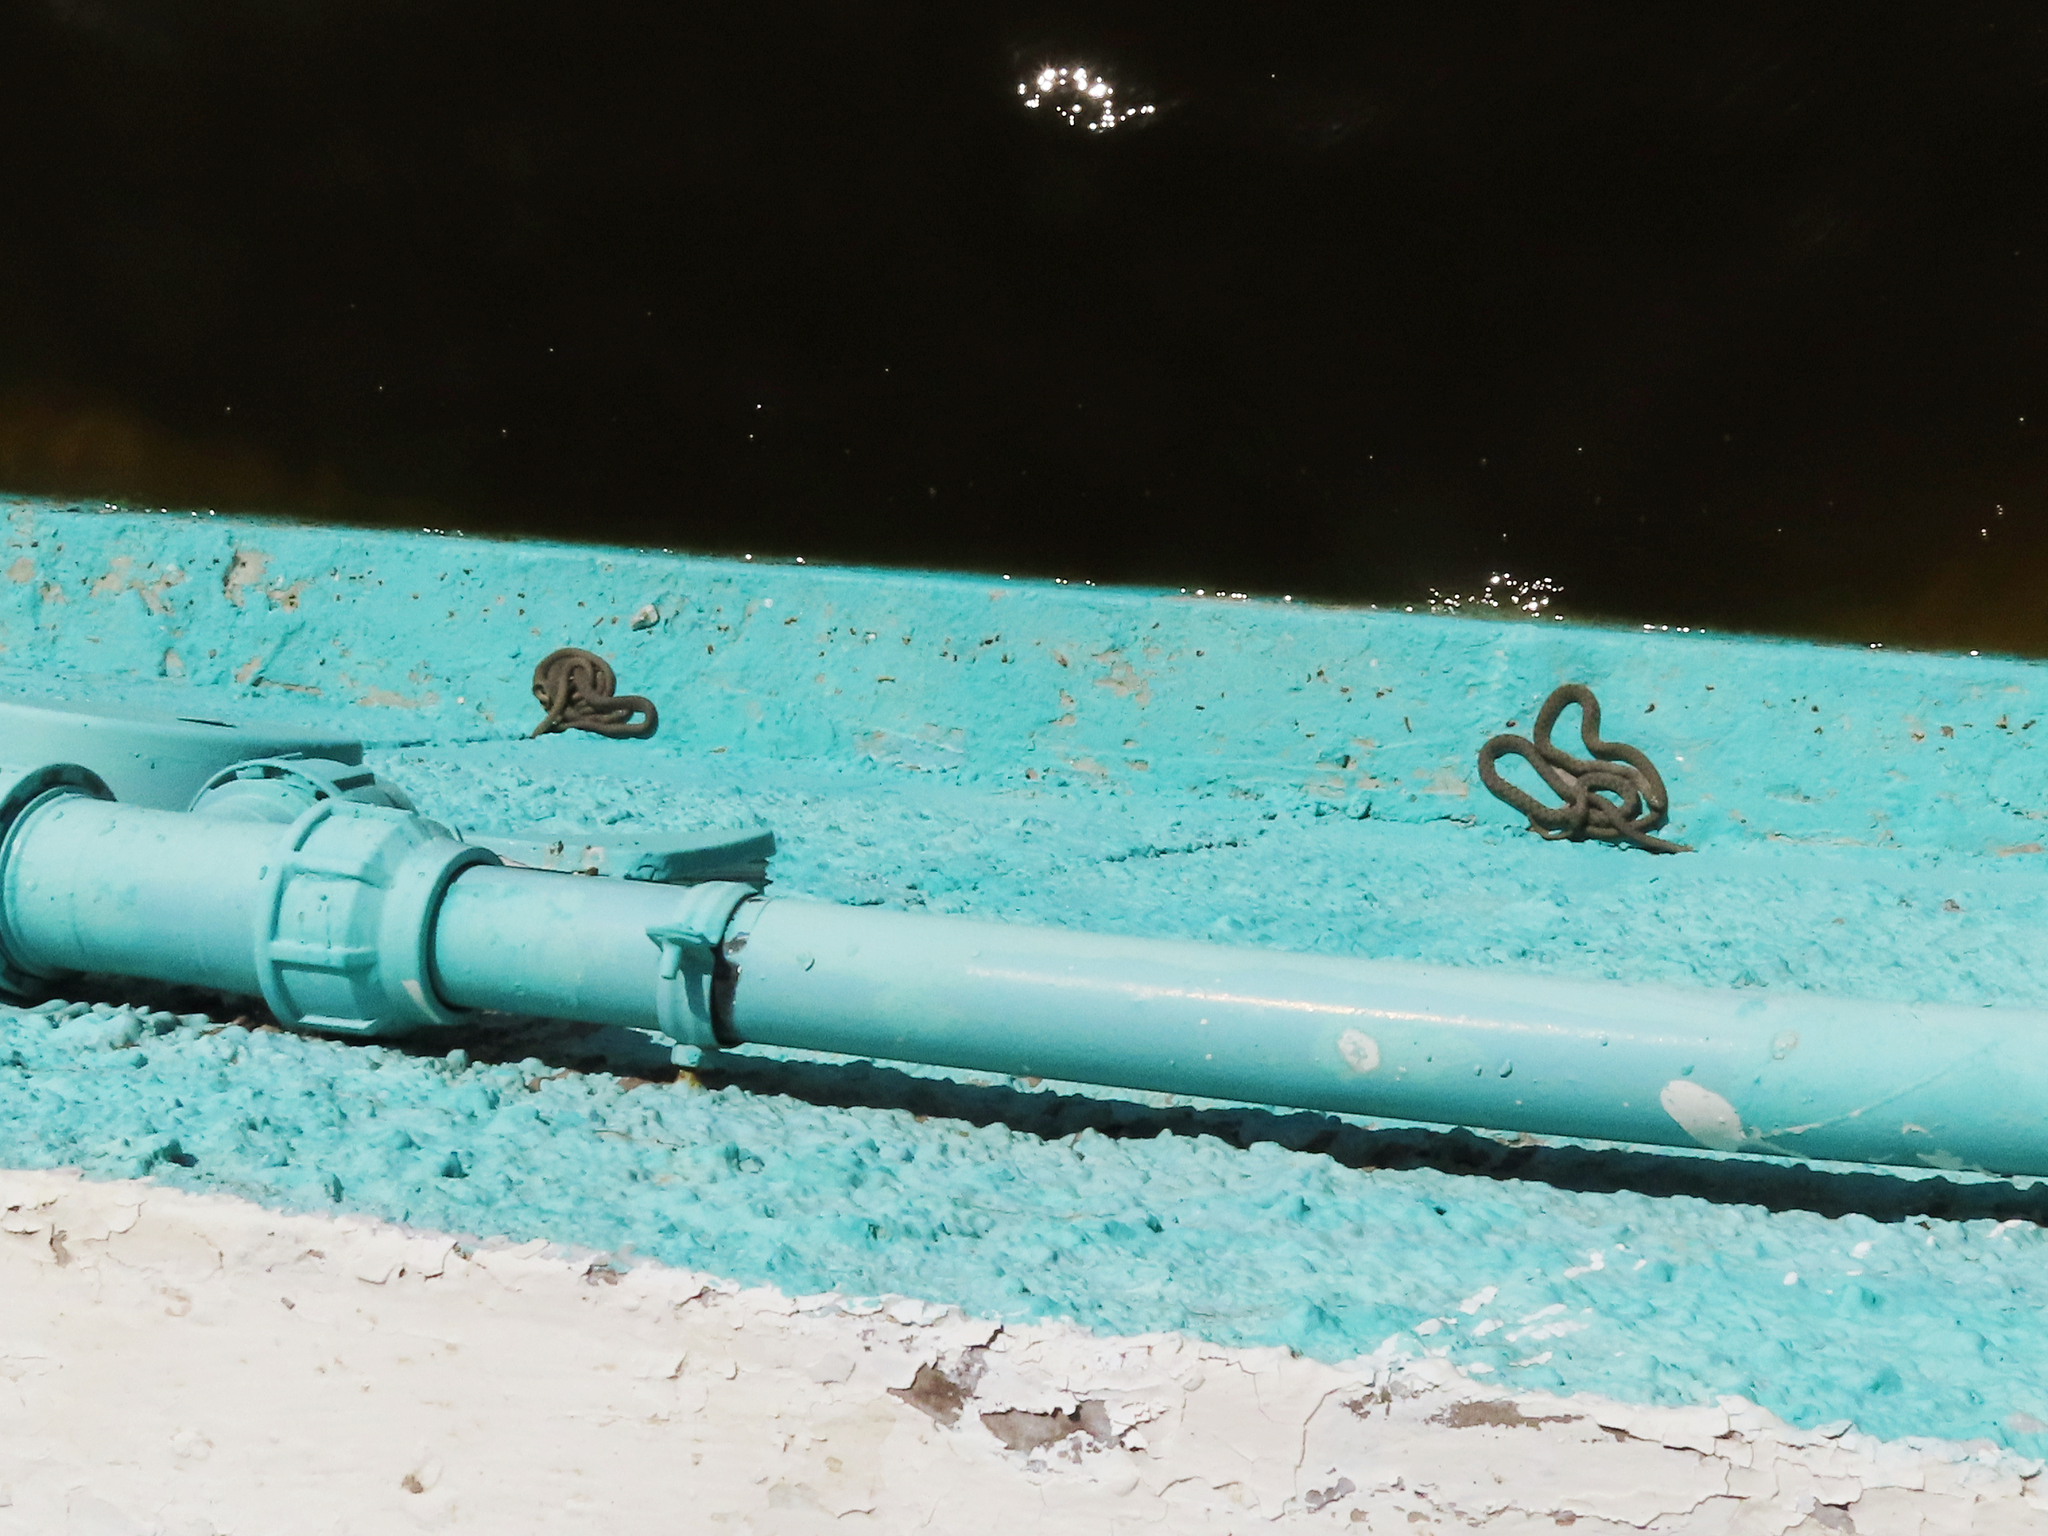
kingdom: Animalia
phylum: Chordata
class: Squamata
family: Colubridae
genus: Natrix
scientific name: Natrix tessellata
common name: Dice snake
